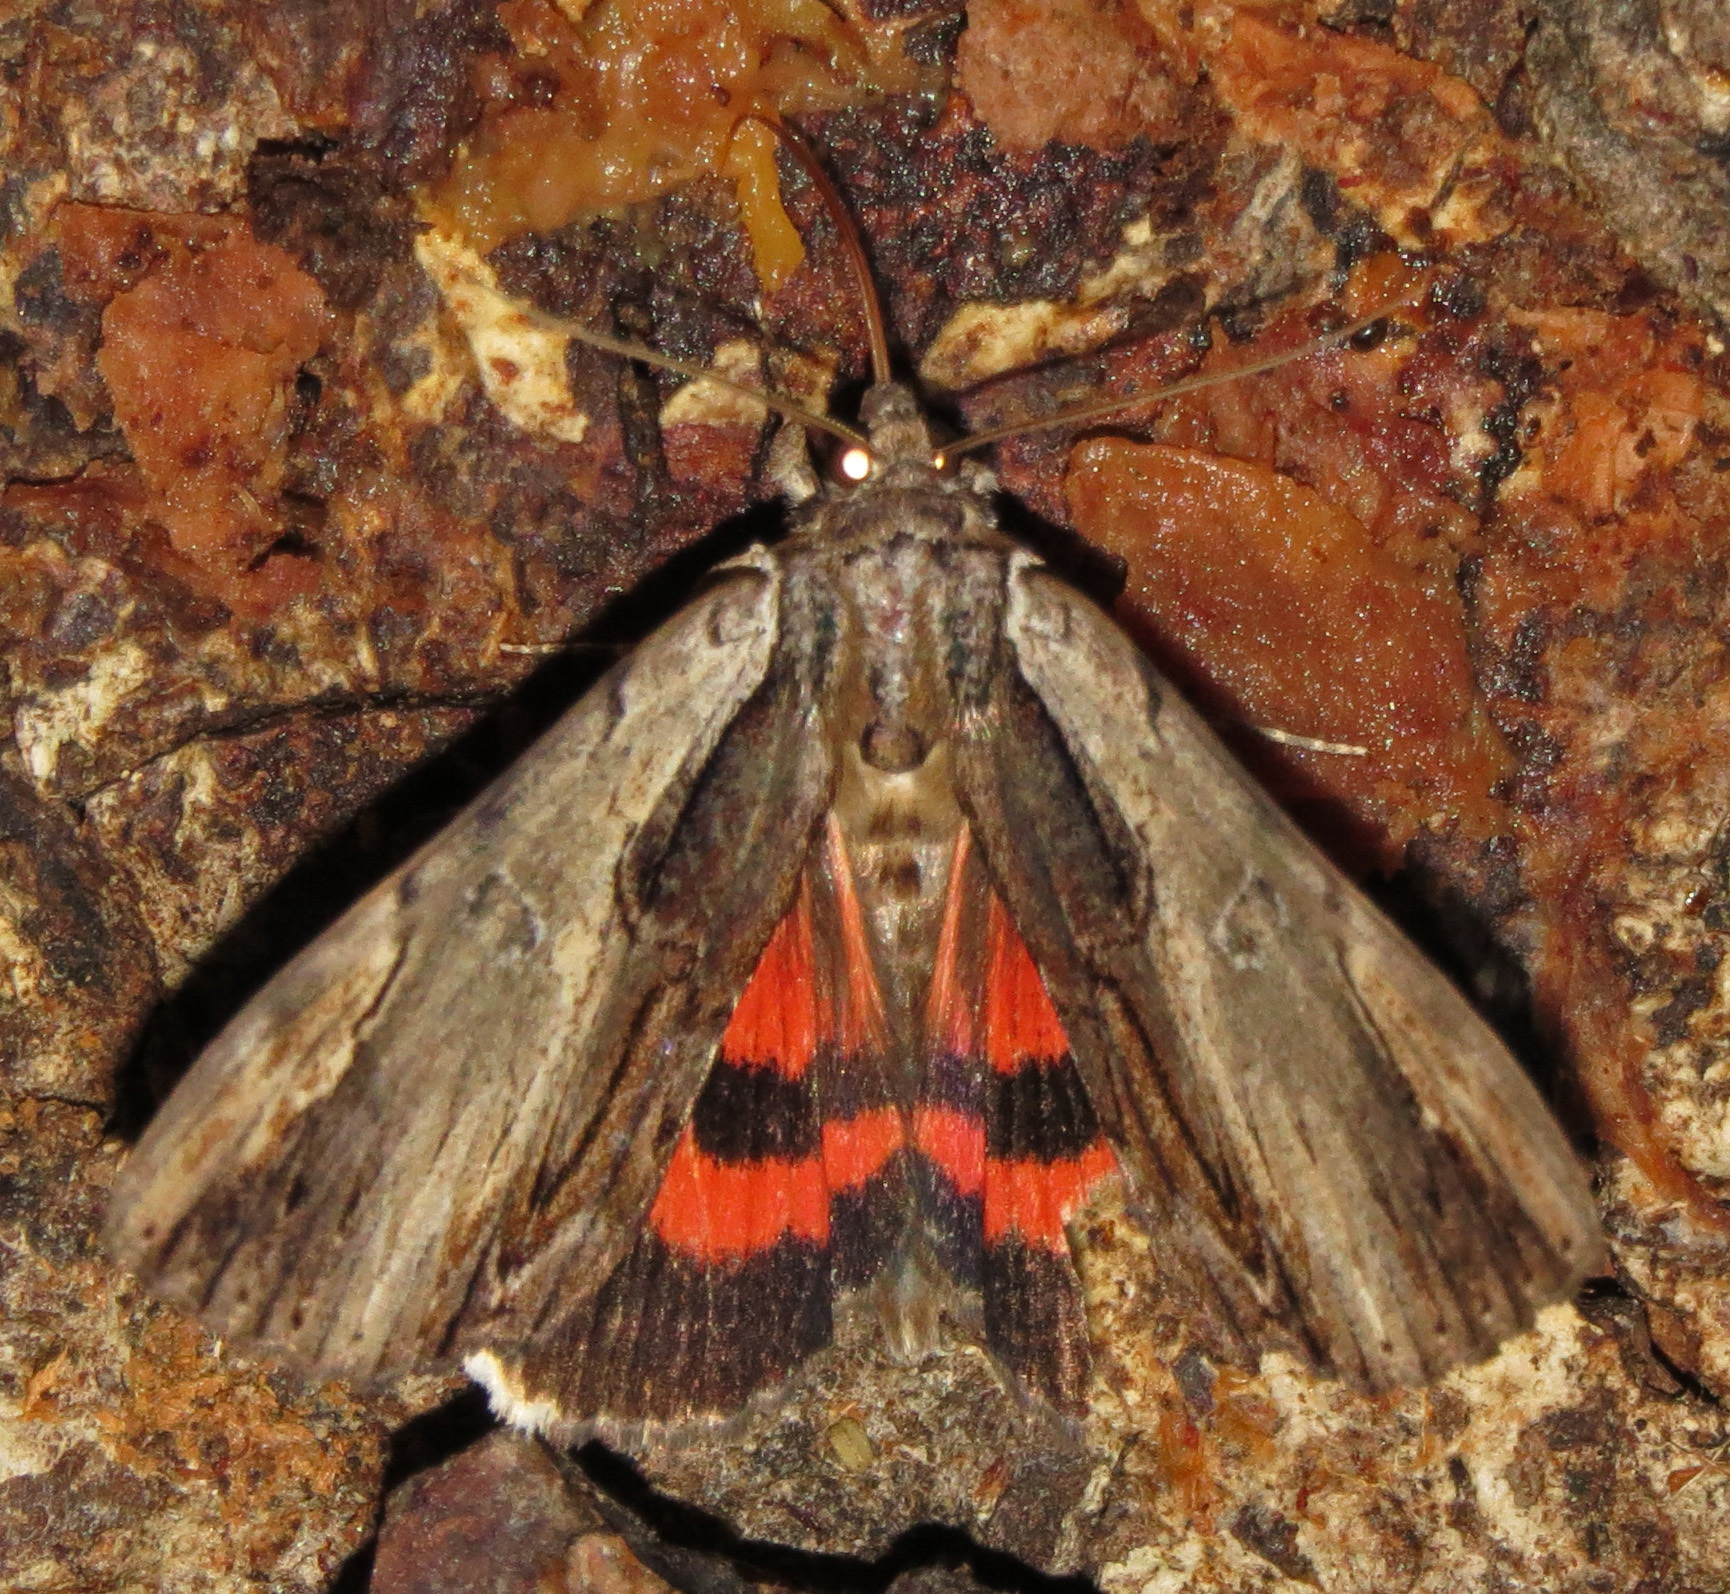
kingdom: Animalia
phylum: Arthropoda
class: Insecta
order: Lepidoptera
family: Erebidae
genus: Catocala
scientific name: Catocala ultronia
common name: Ultronia underwing
